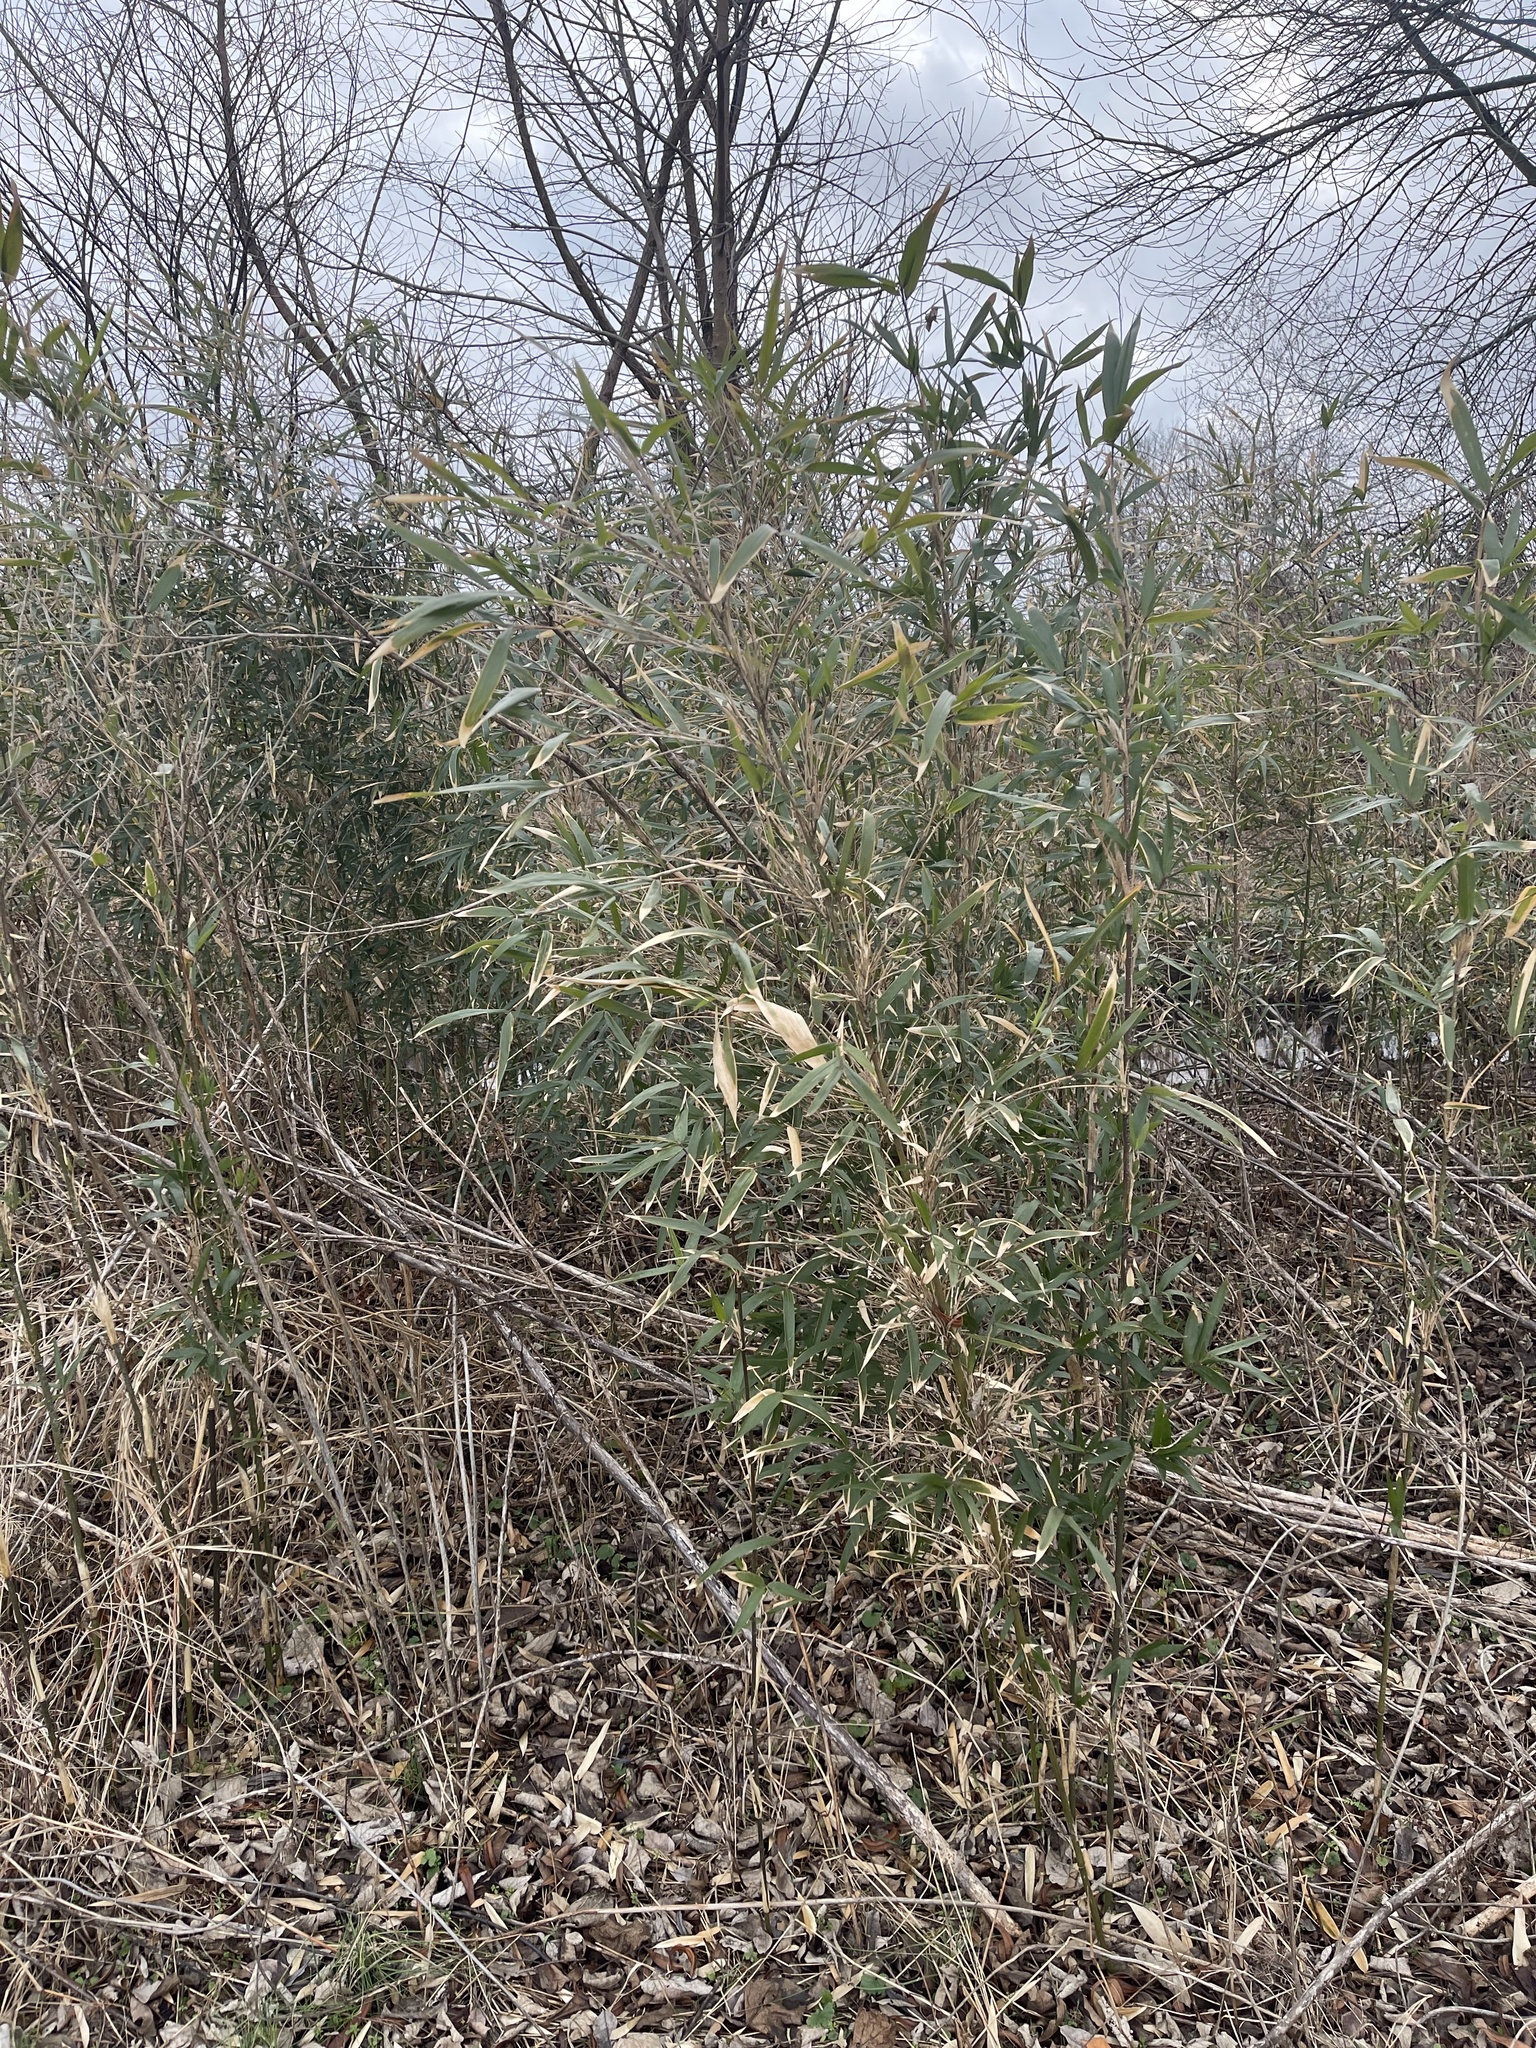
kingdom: Plantae
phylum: Tracheophyta
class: Liliopsida
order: Poales
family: Poaceae
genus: Arundinaria
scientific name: Arundinaria gigantea
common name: Giant cane
